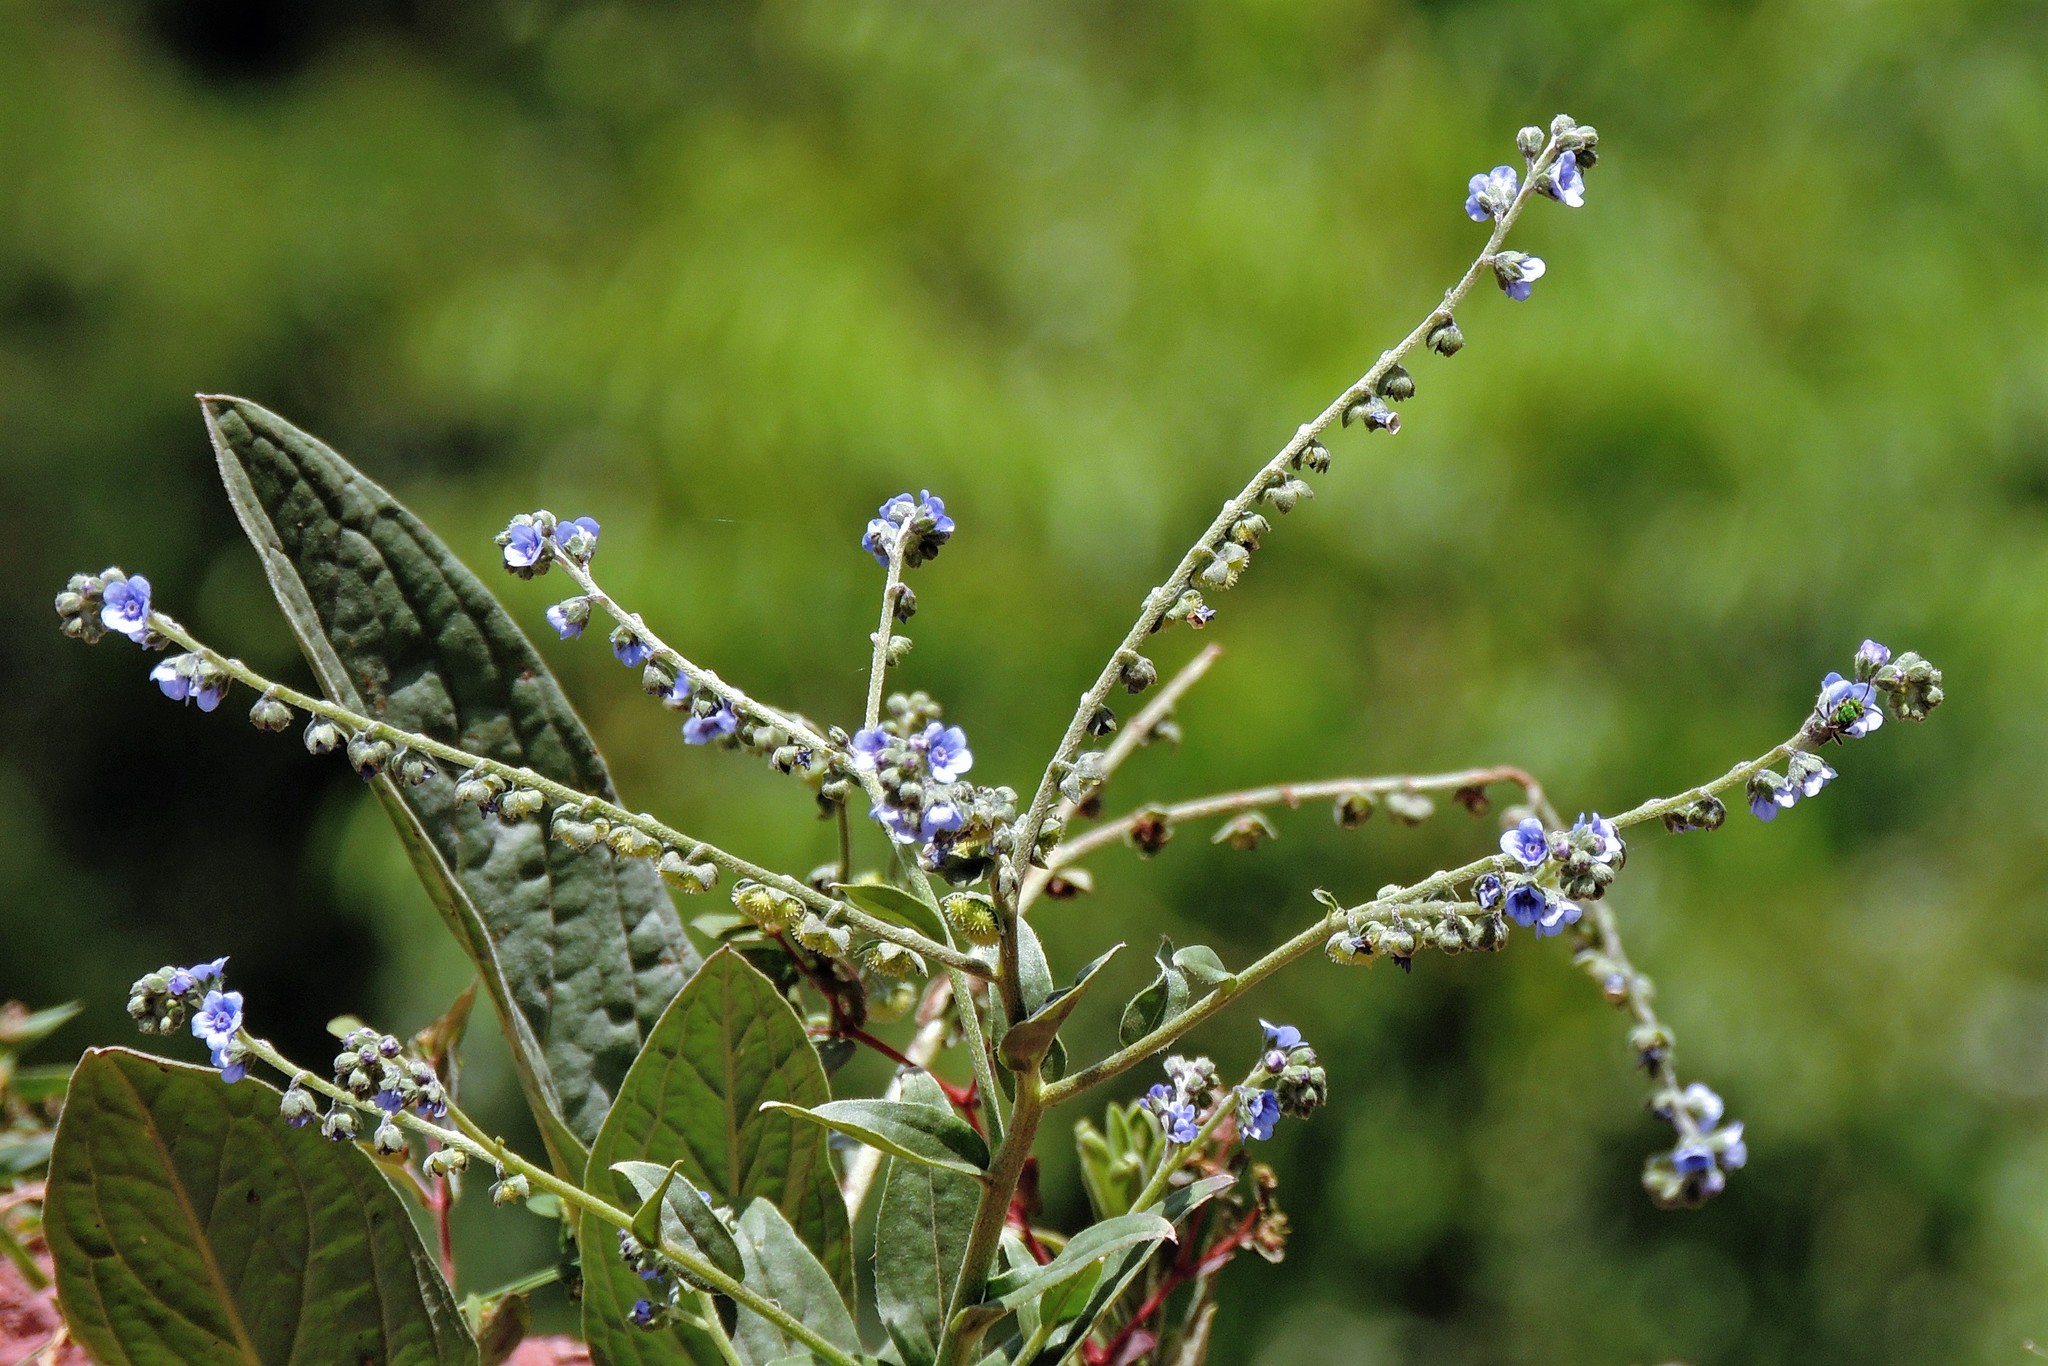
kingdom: Plantae
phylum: Tracheophyta
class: Magnoliopsida
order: Boraginales
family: Boraginaceae
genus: Cynoglossum
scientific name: Cynoglossum amabile
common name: Chinese hound's tongue
